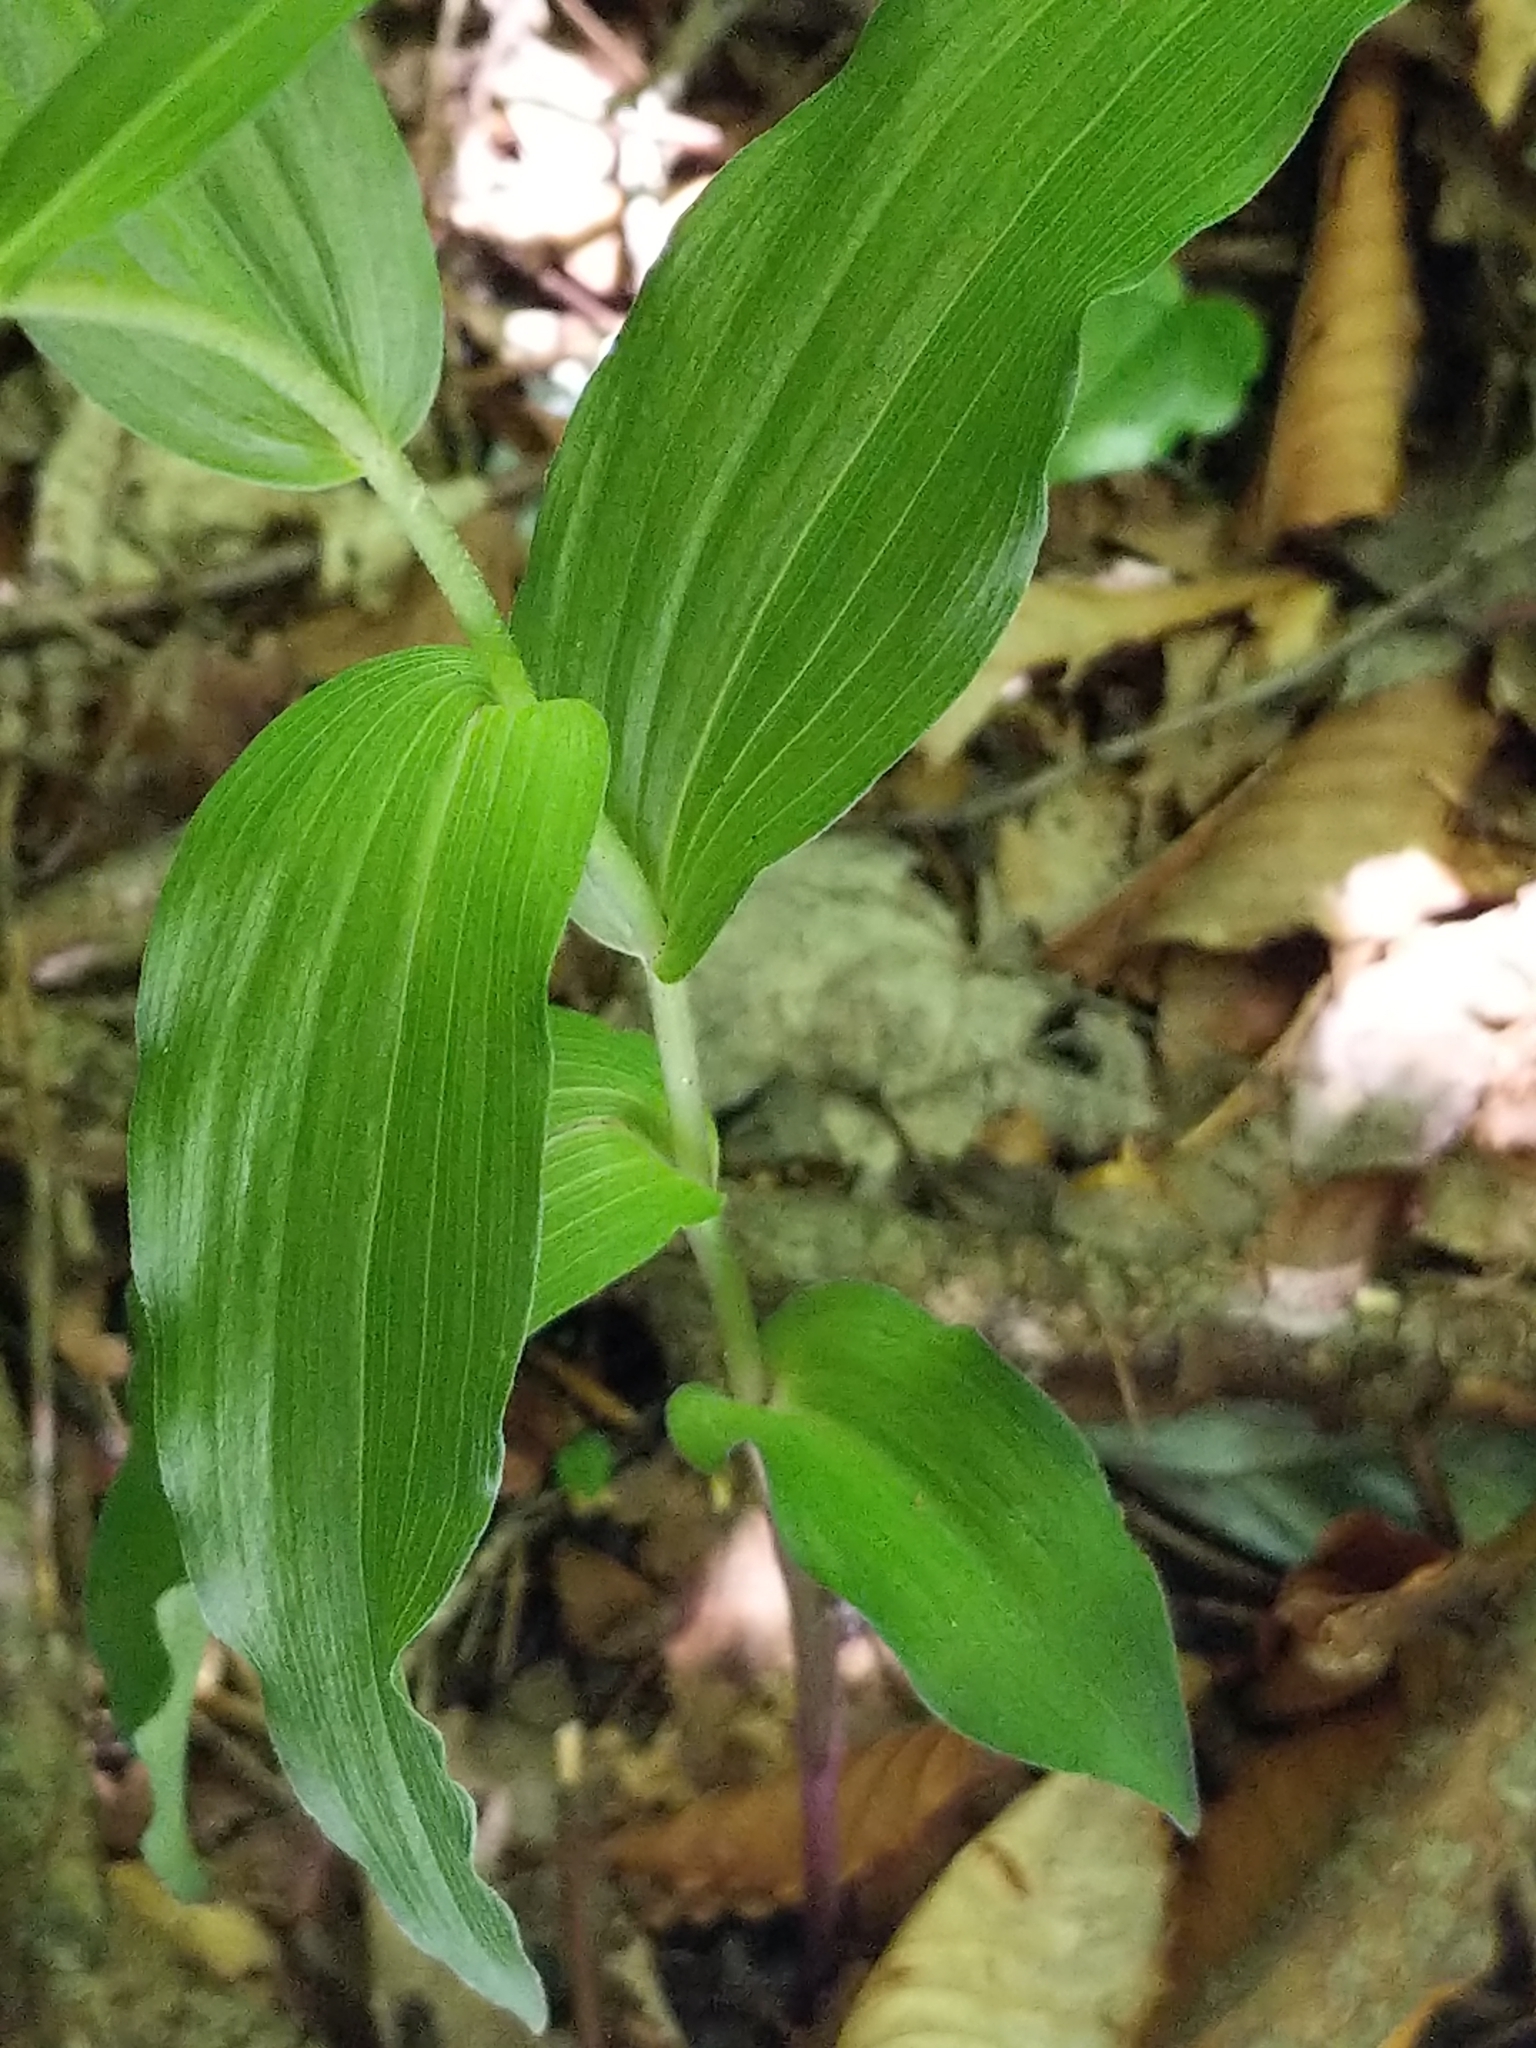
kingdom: Plantae
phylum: Tracheophyta
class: Liliopsida
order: Asparagales
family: Orchidaceae
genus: Epipactis
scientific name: Epipactis helleborine
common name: Broad-leaved helleborine
